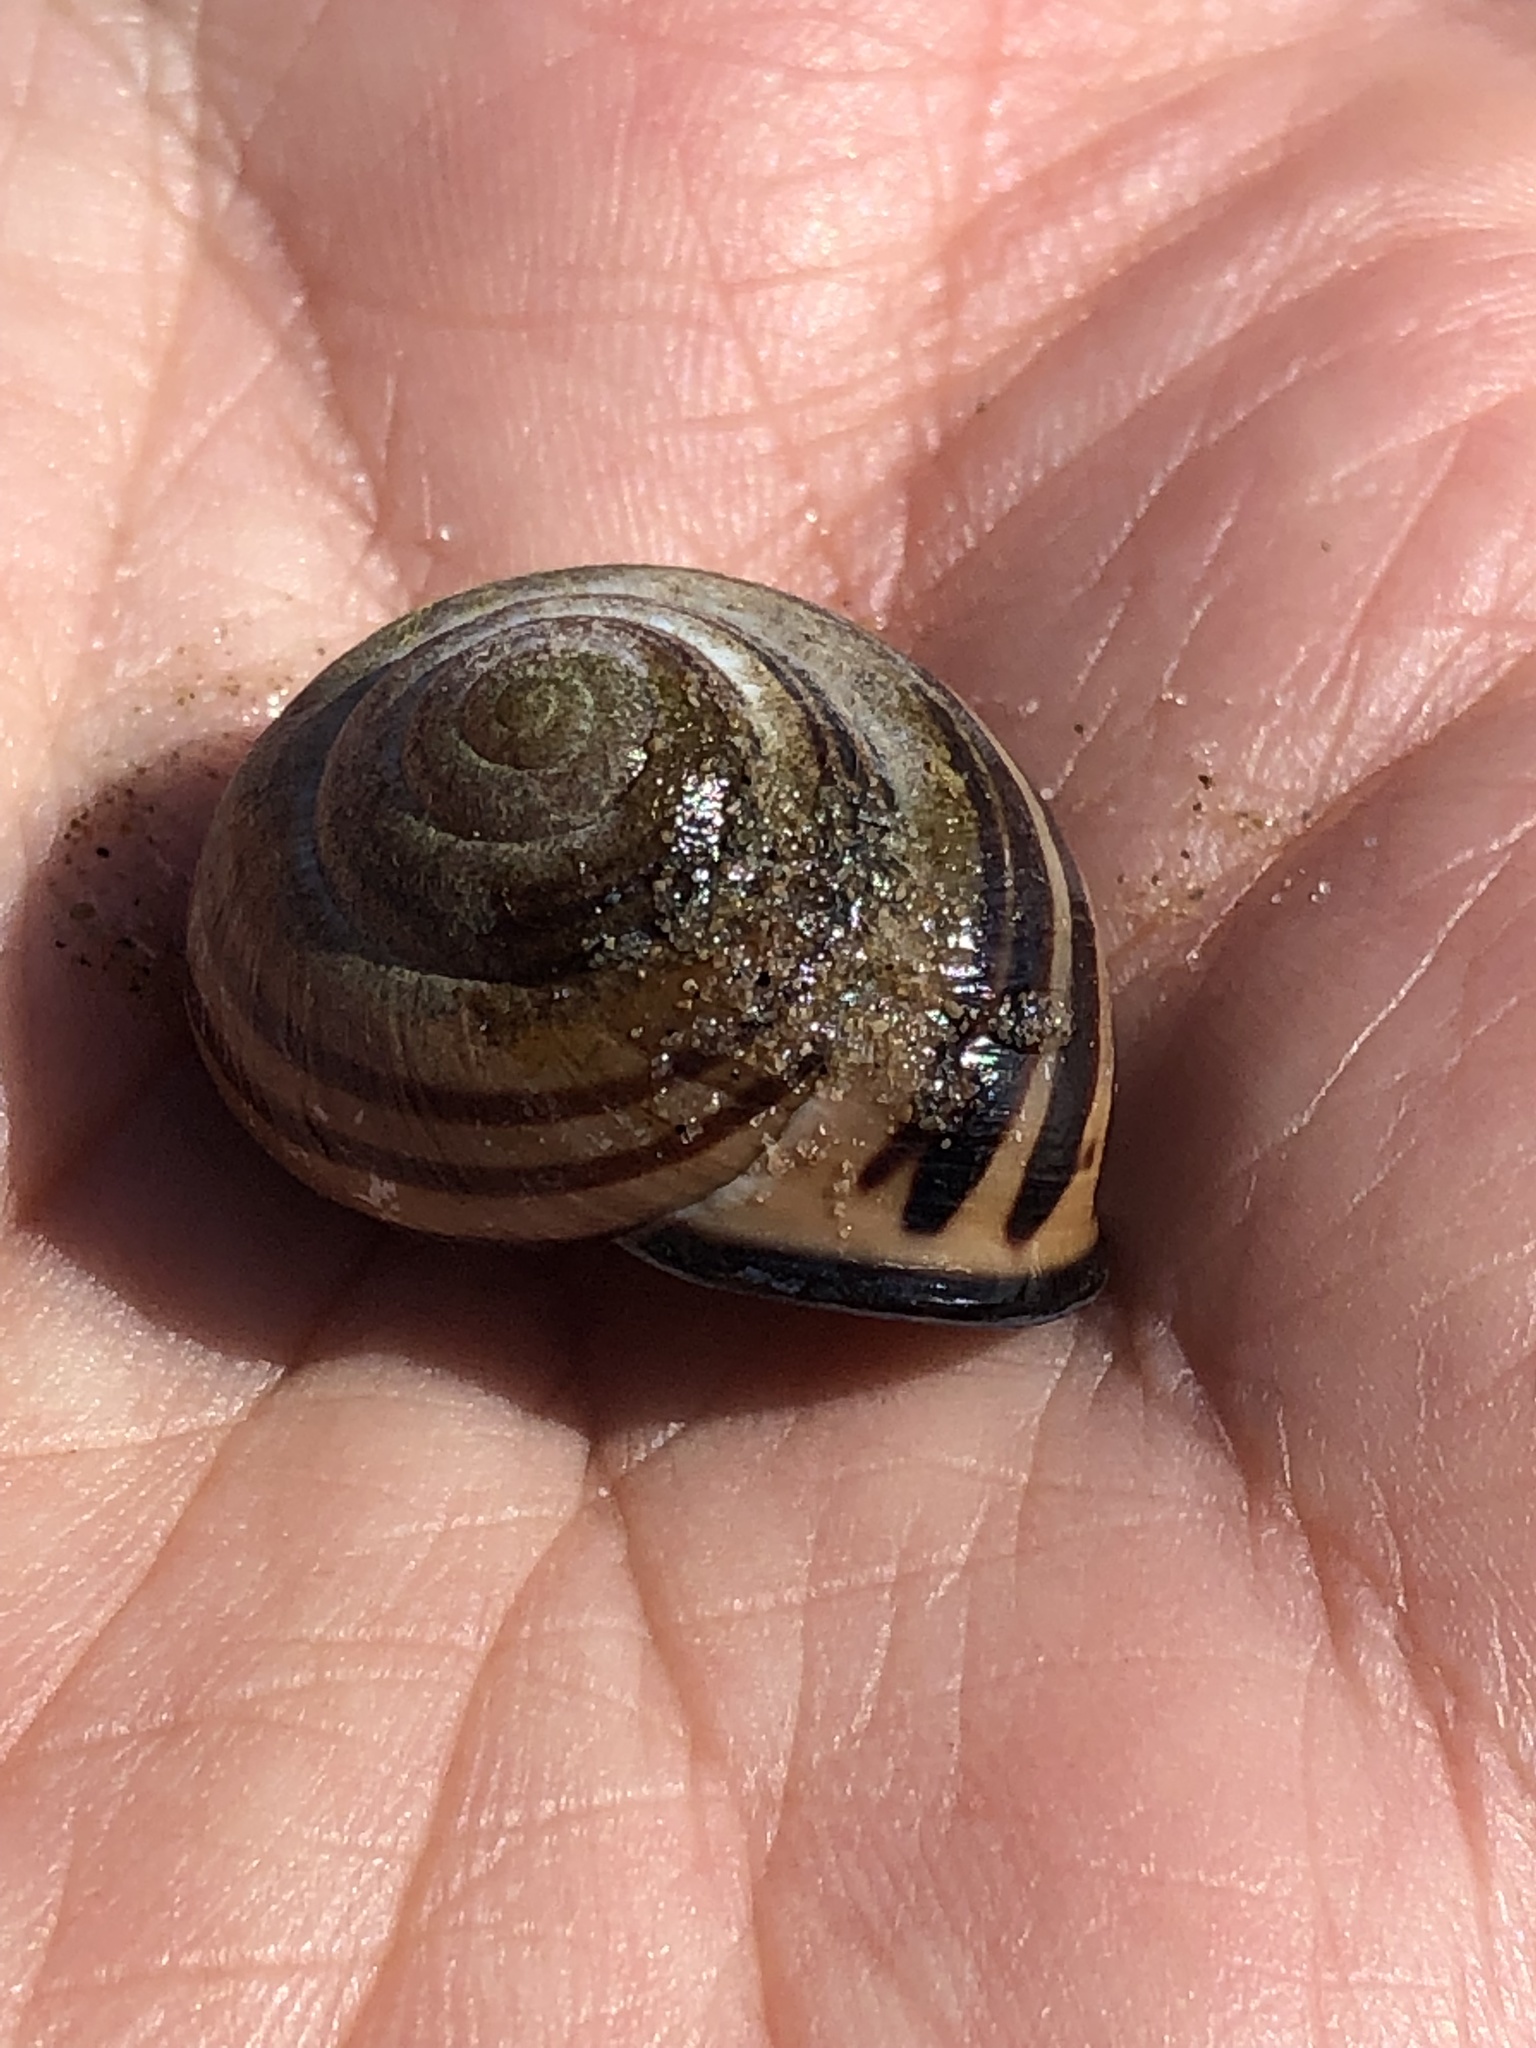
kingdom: Animalia
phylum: Mollusca
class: Gastropoda
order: Stylommatophora
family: Helicidae
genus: Cepaea
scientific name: Cepaea nemoralis
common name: Grovesnail
